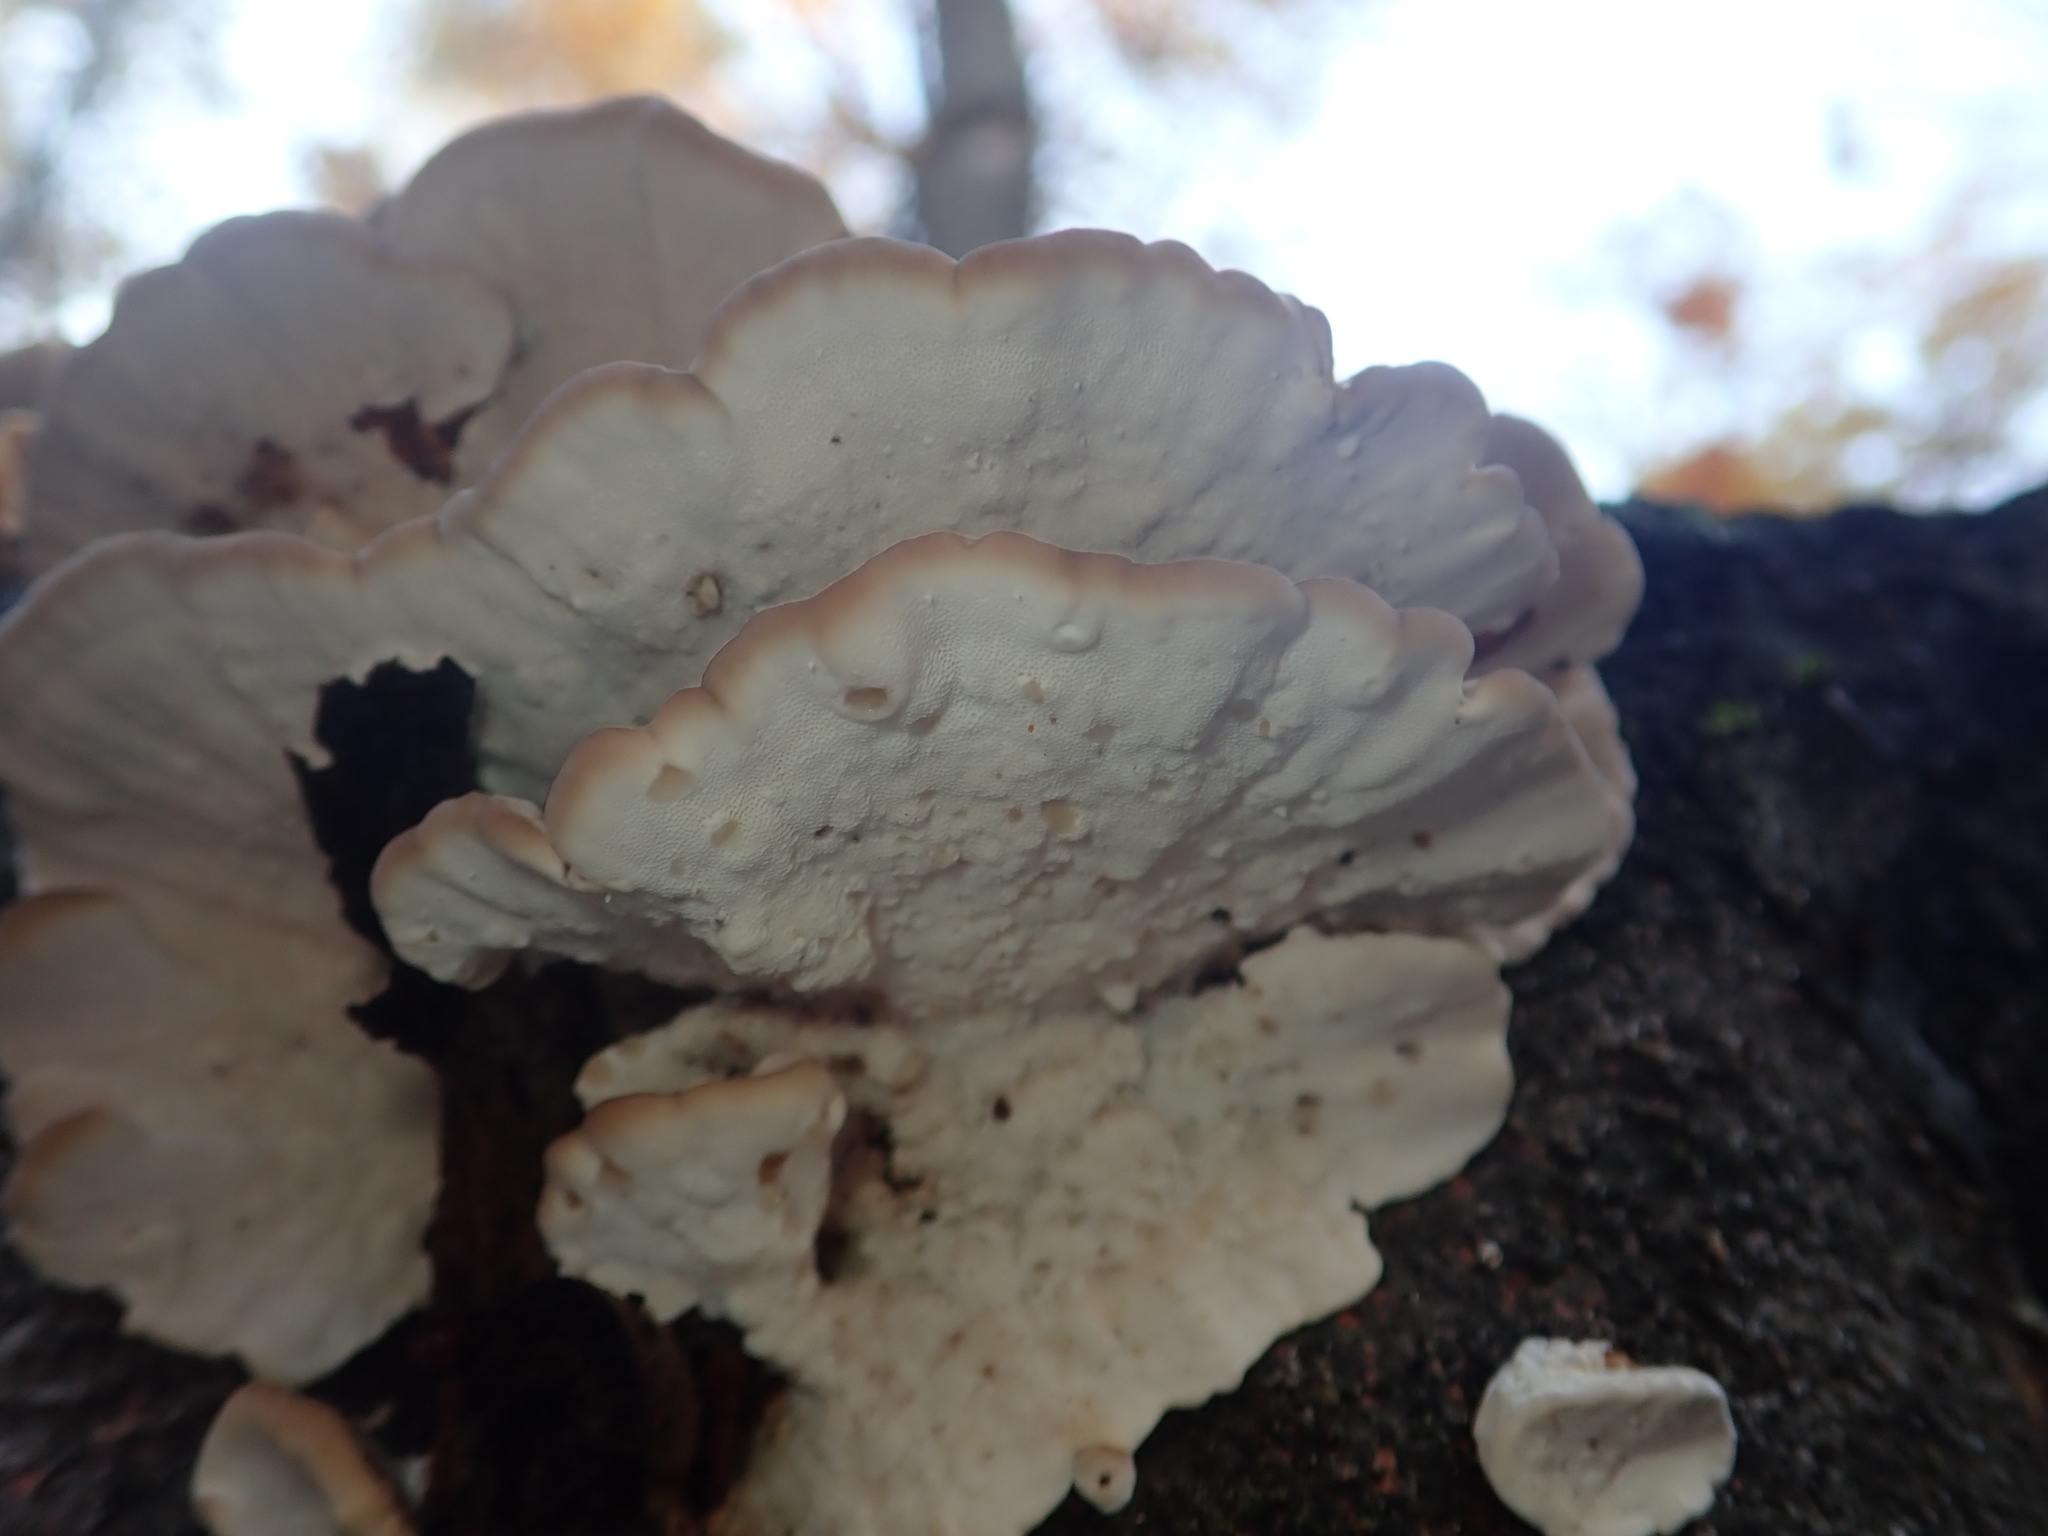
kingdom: Fungi
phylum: Basidiomycota
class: Agaricomycetes
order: Polyporales
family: Polyporaceae
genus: Trametes
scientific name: Trametes versicolor
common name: Turkeytail
